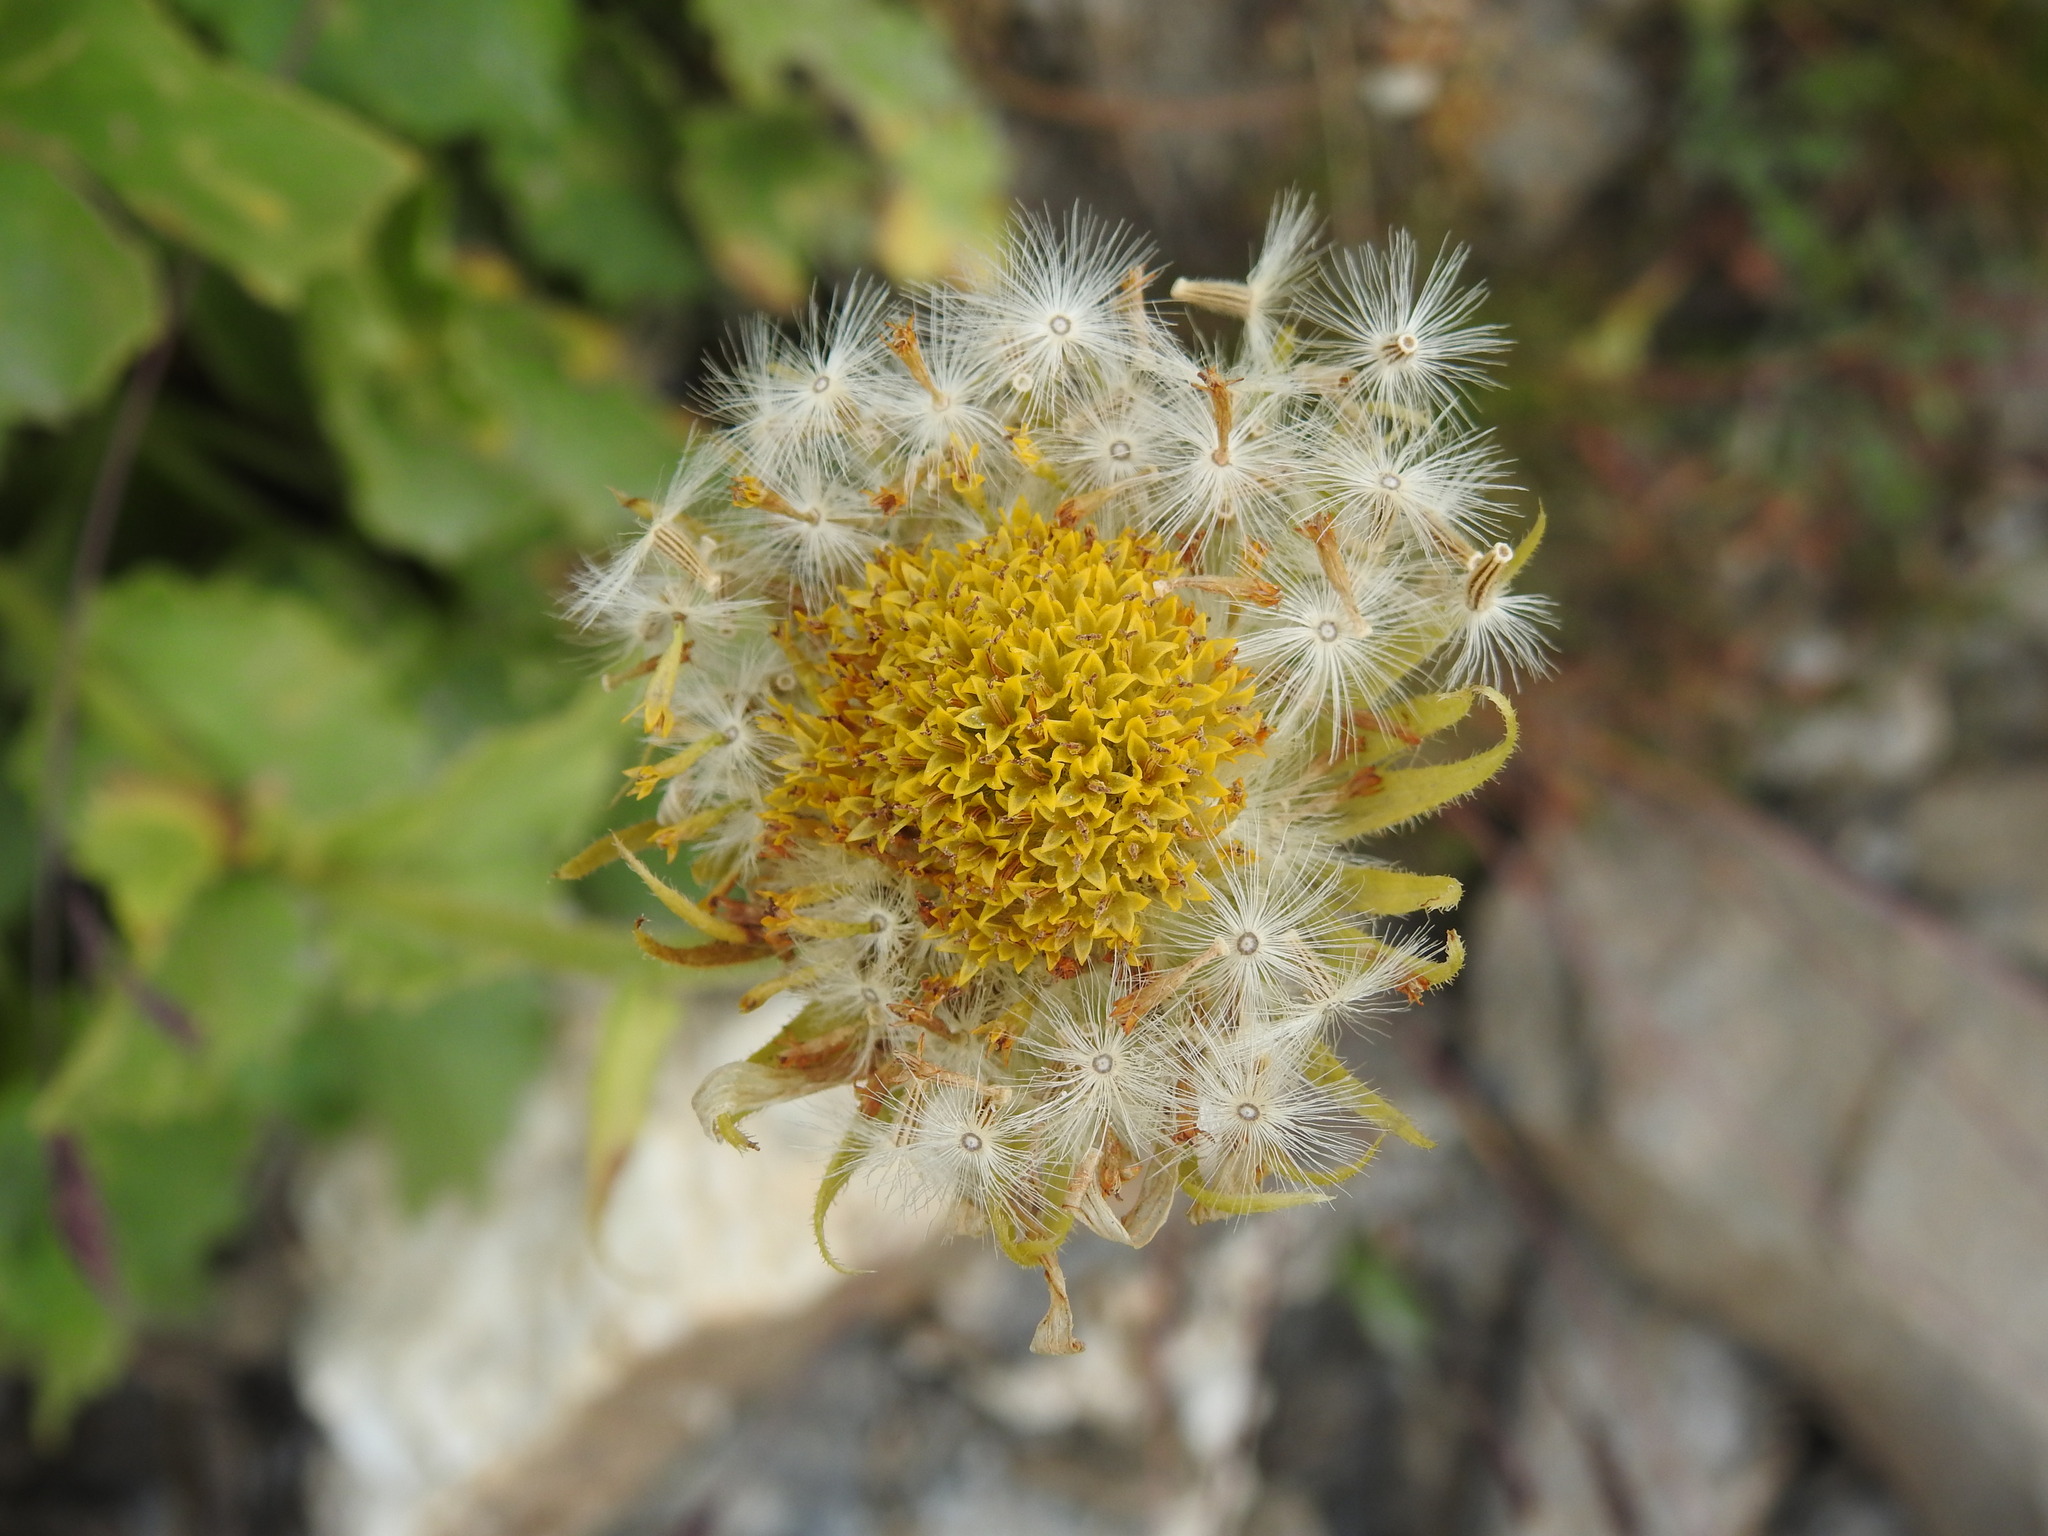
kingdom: Plantae
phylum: Tracheophyta
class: Magnoliopsida
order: Asterales
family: Asteraceae
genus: Doronicum
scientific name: Doronicum grandiflorum
